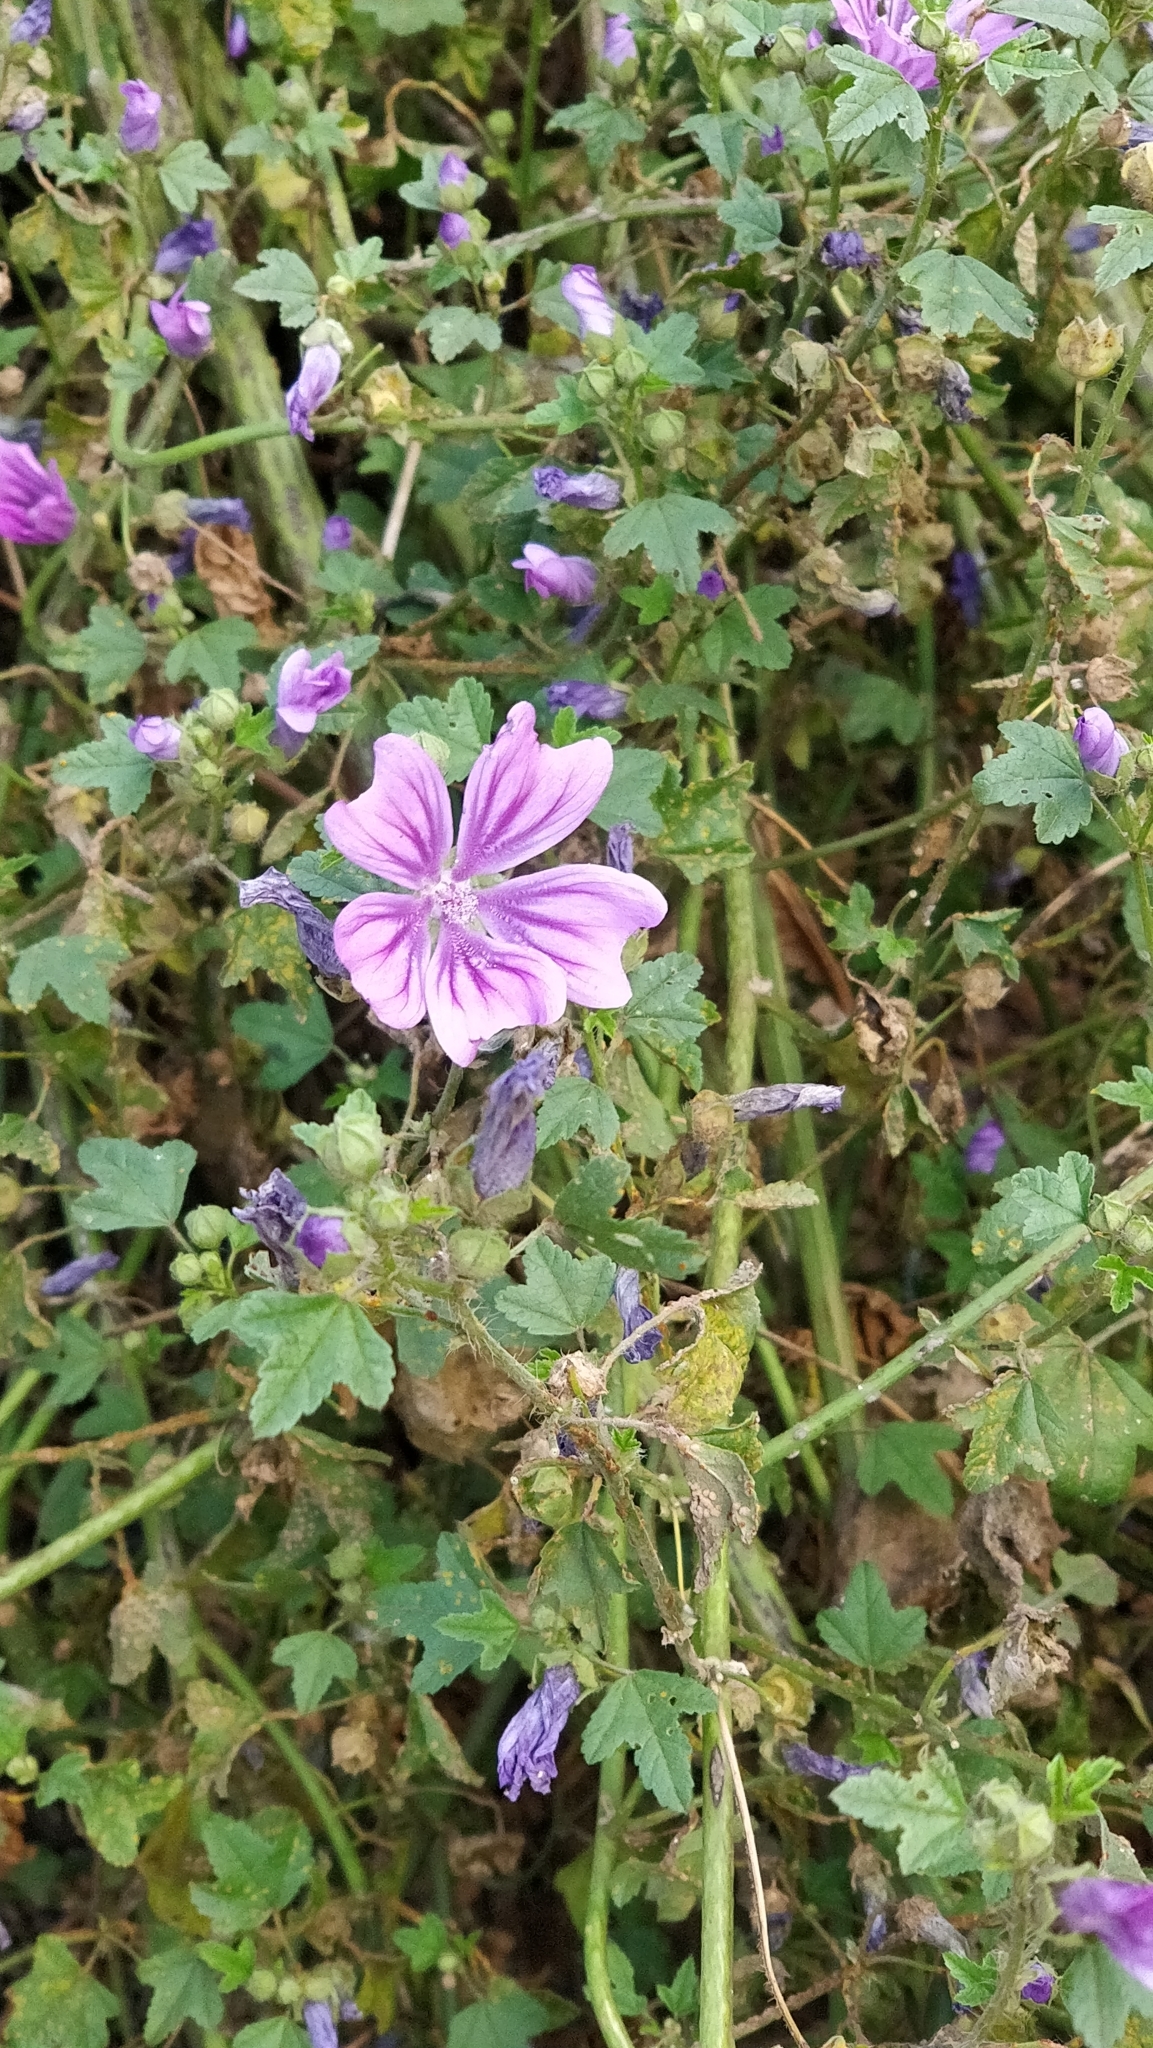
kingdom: Plantae
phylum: Tracheophyta
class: Magnoliopsida
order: Malvales
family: Malvaceae
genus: Malva
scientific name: Malva sylvestris
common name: Common mallow
